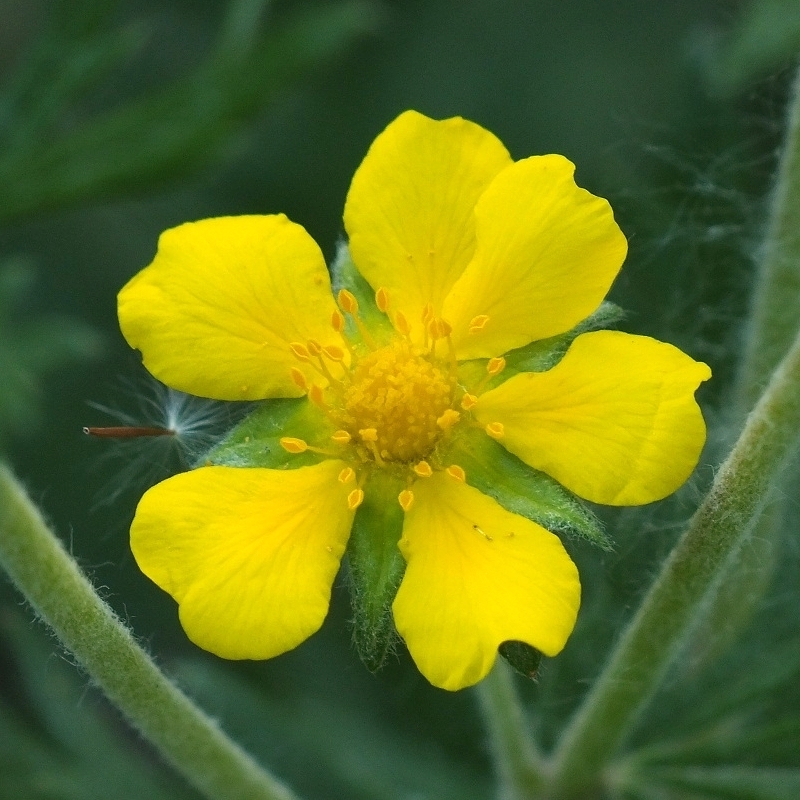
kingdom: Plantae
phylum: Tracheophyta
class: Magnoliopsida
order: Rosales
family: Rosaceae
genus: Potentilla
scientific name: Potentilla argentea
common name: Hoary cinquefoil
